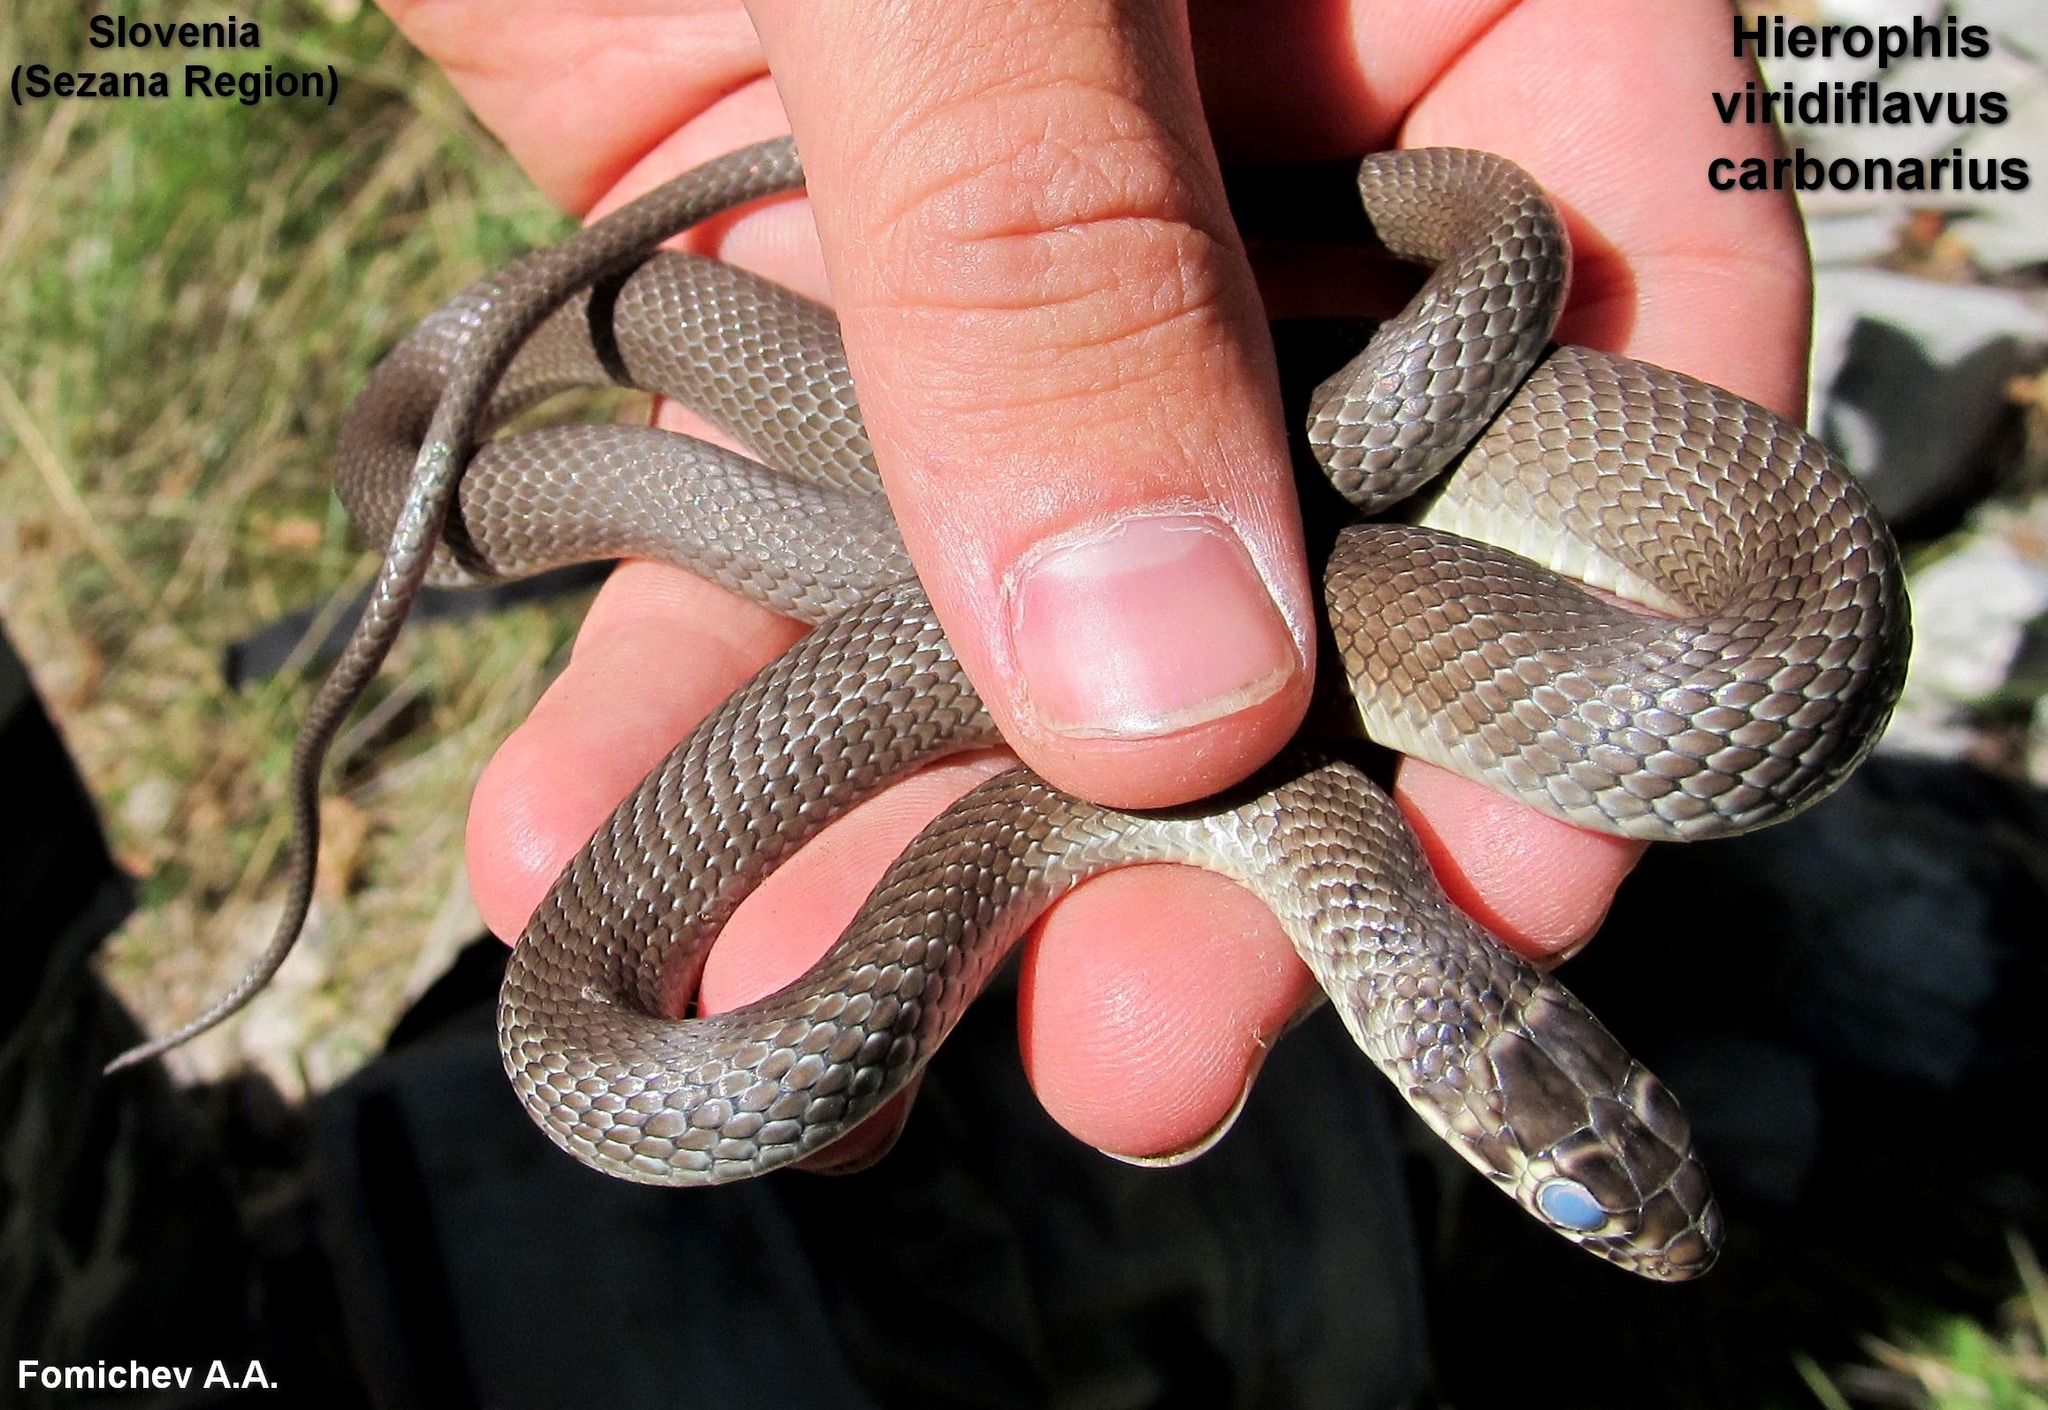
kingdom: Animalia
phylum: Chordata
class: Squamata
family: Colubridae
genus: Hierophis
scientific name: Hierophis viridiflavus
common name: Green whip snake
